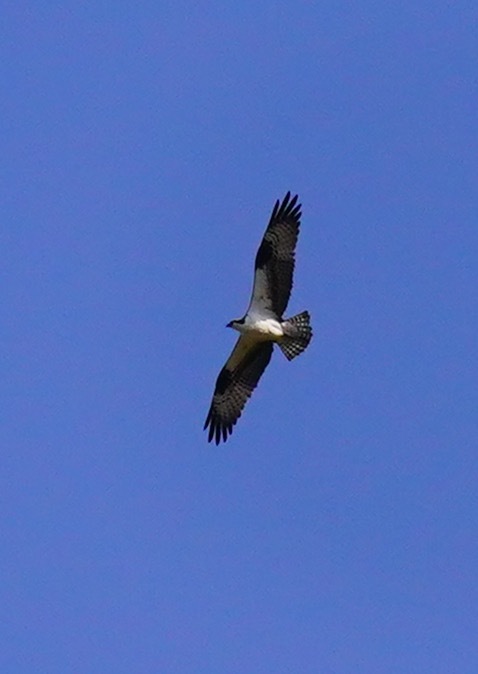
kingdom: Animalia
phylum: Chordata
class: Aves
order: Accipitriformes
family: Pandionidae
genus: Pandion
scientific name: Pandion haliaetus
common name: Osprey
